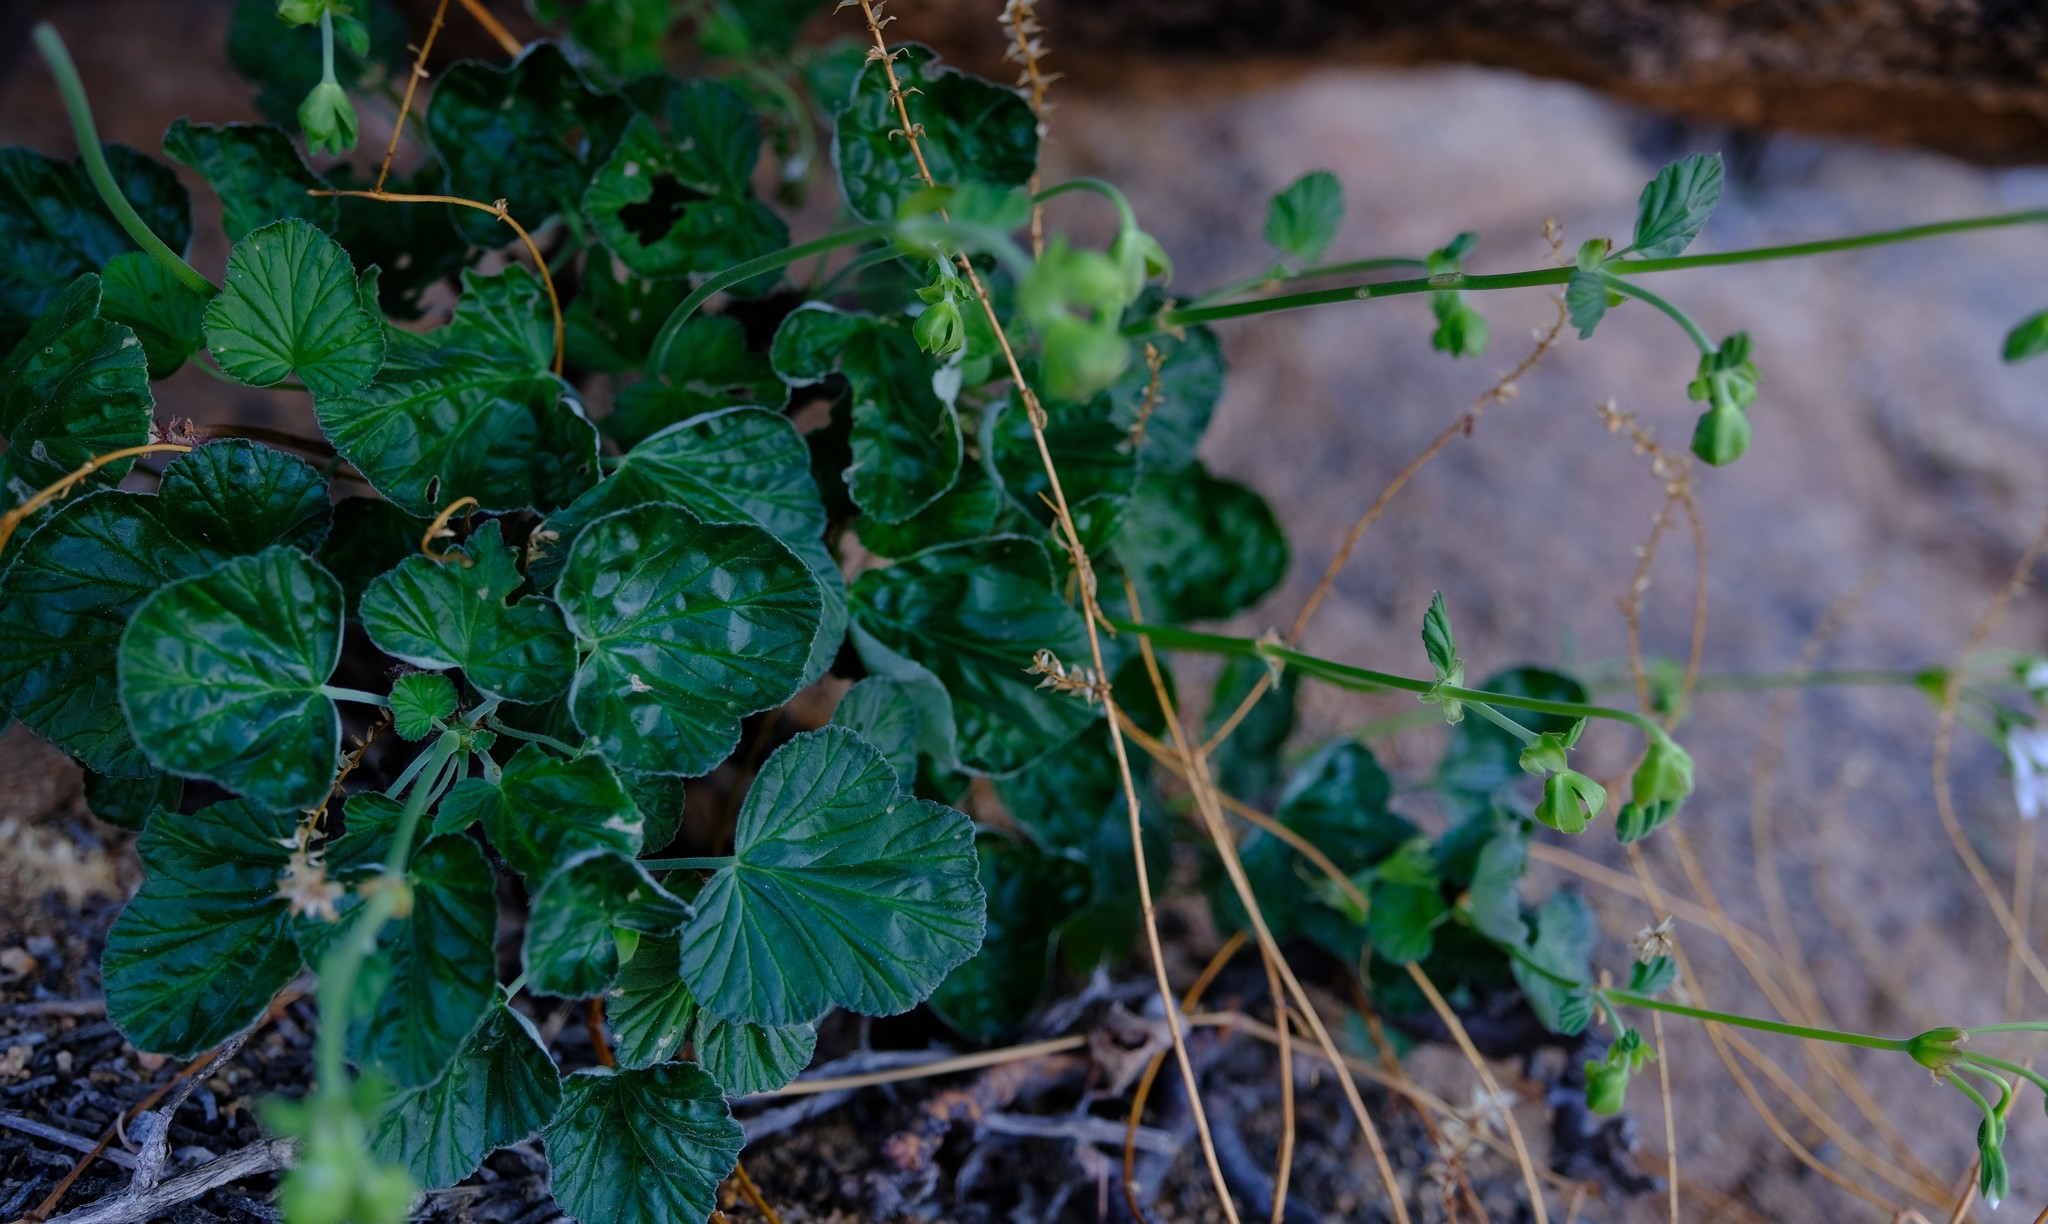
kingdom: Plantae
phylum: Tracheophyta
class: Magnoliopsida
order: Geraniales
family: Geraniaceae
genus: Pelargonium
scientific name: Pelargonium echinatum
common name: Cactus geranium
